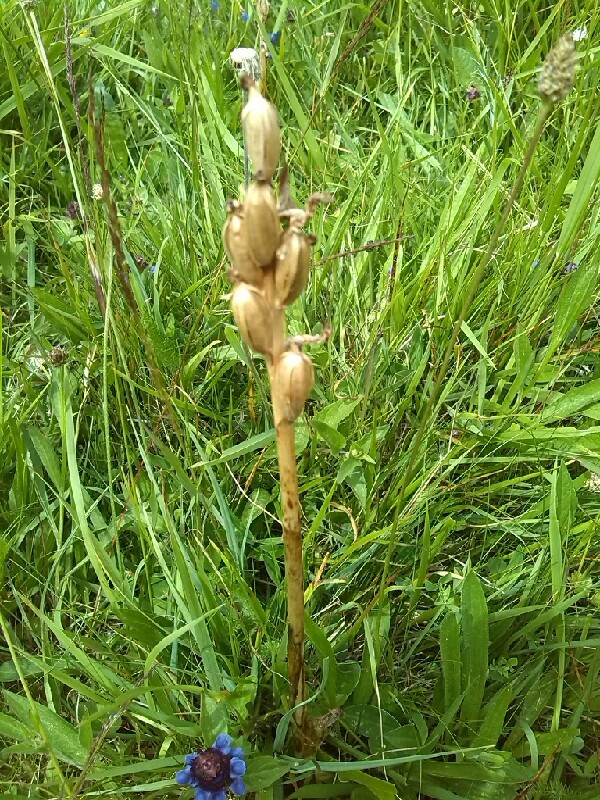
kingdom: Plantae
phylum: Tracheophyta
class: Liliopsida
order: Asparagales
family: Orchidaceae
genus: Anacamptis
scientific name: Anacamptis morio
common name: Green-winged orchid
